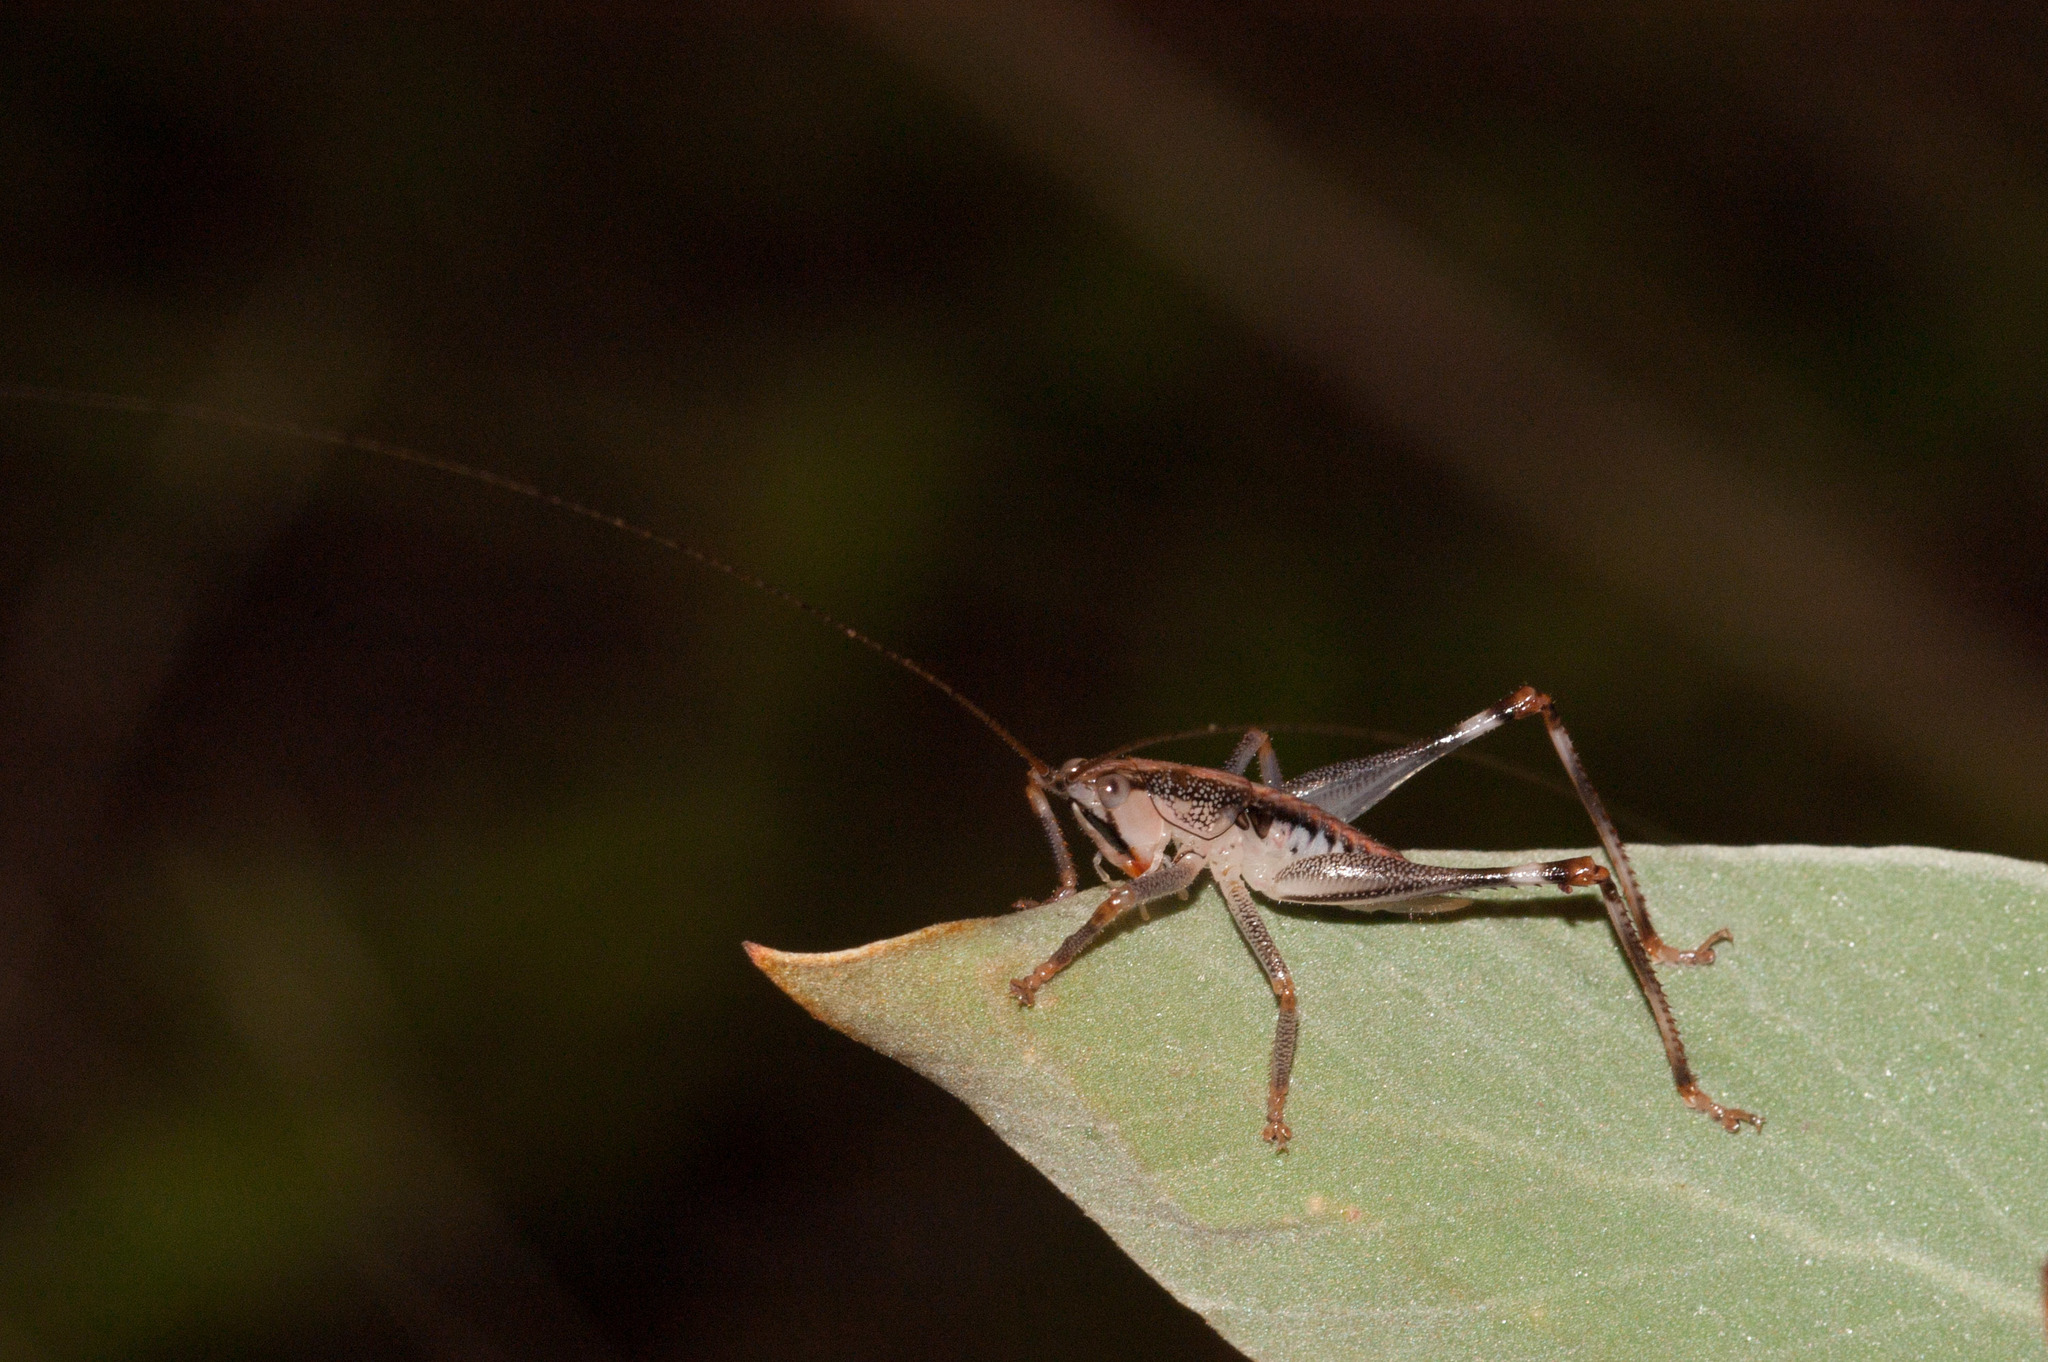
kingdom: Animalia
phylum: Arthropoda
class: Insecta
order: Orthoptera
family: Tettigoniidae
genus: Nicsara
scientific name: Nicsara bifasciata
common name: Striped nicsara
